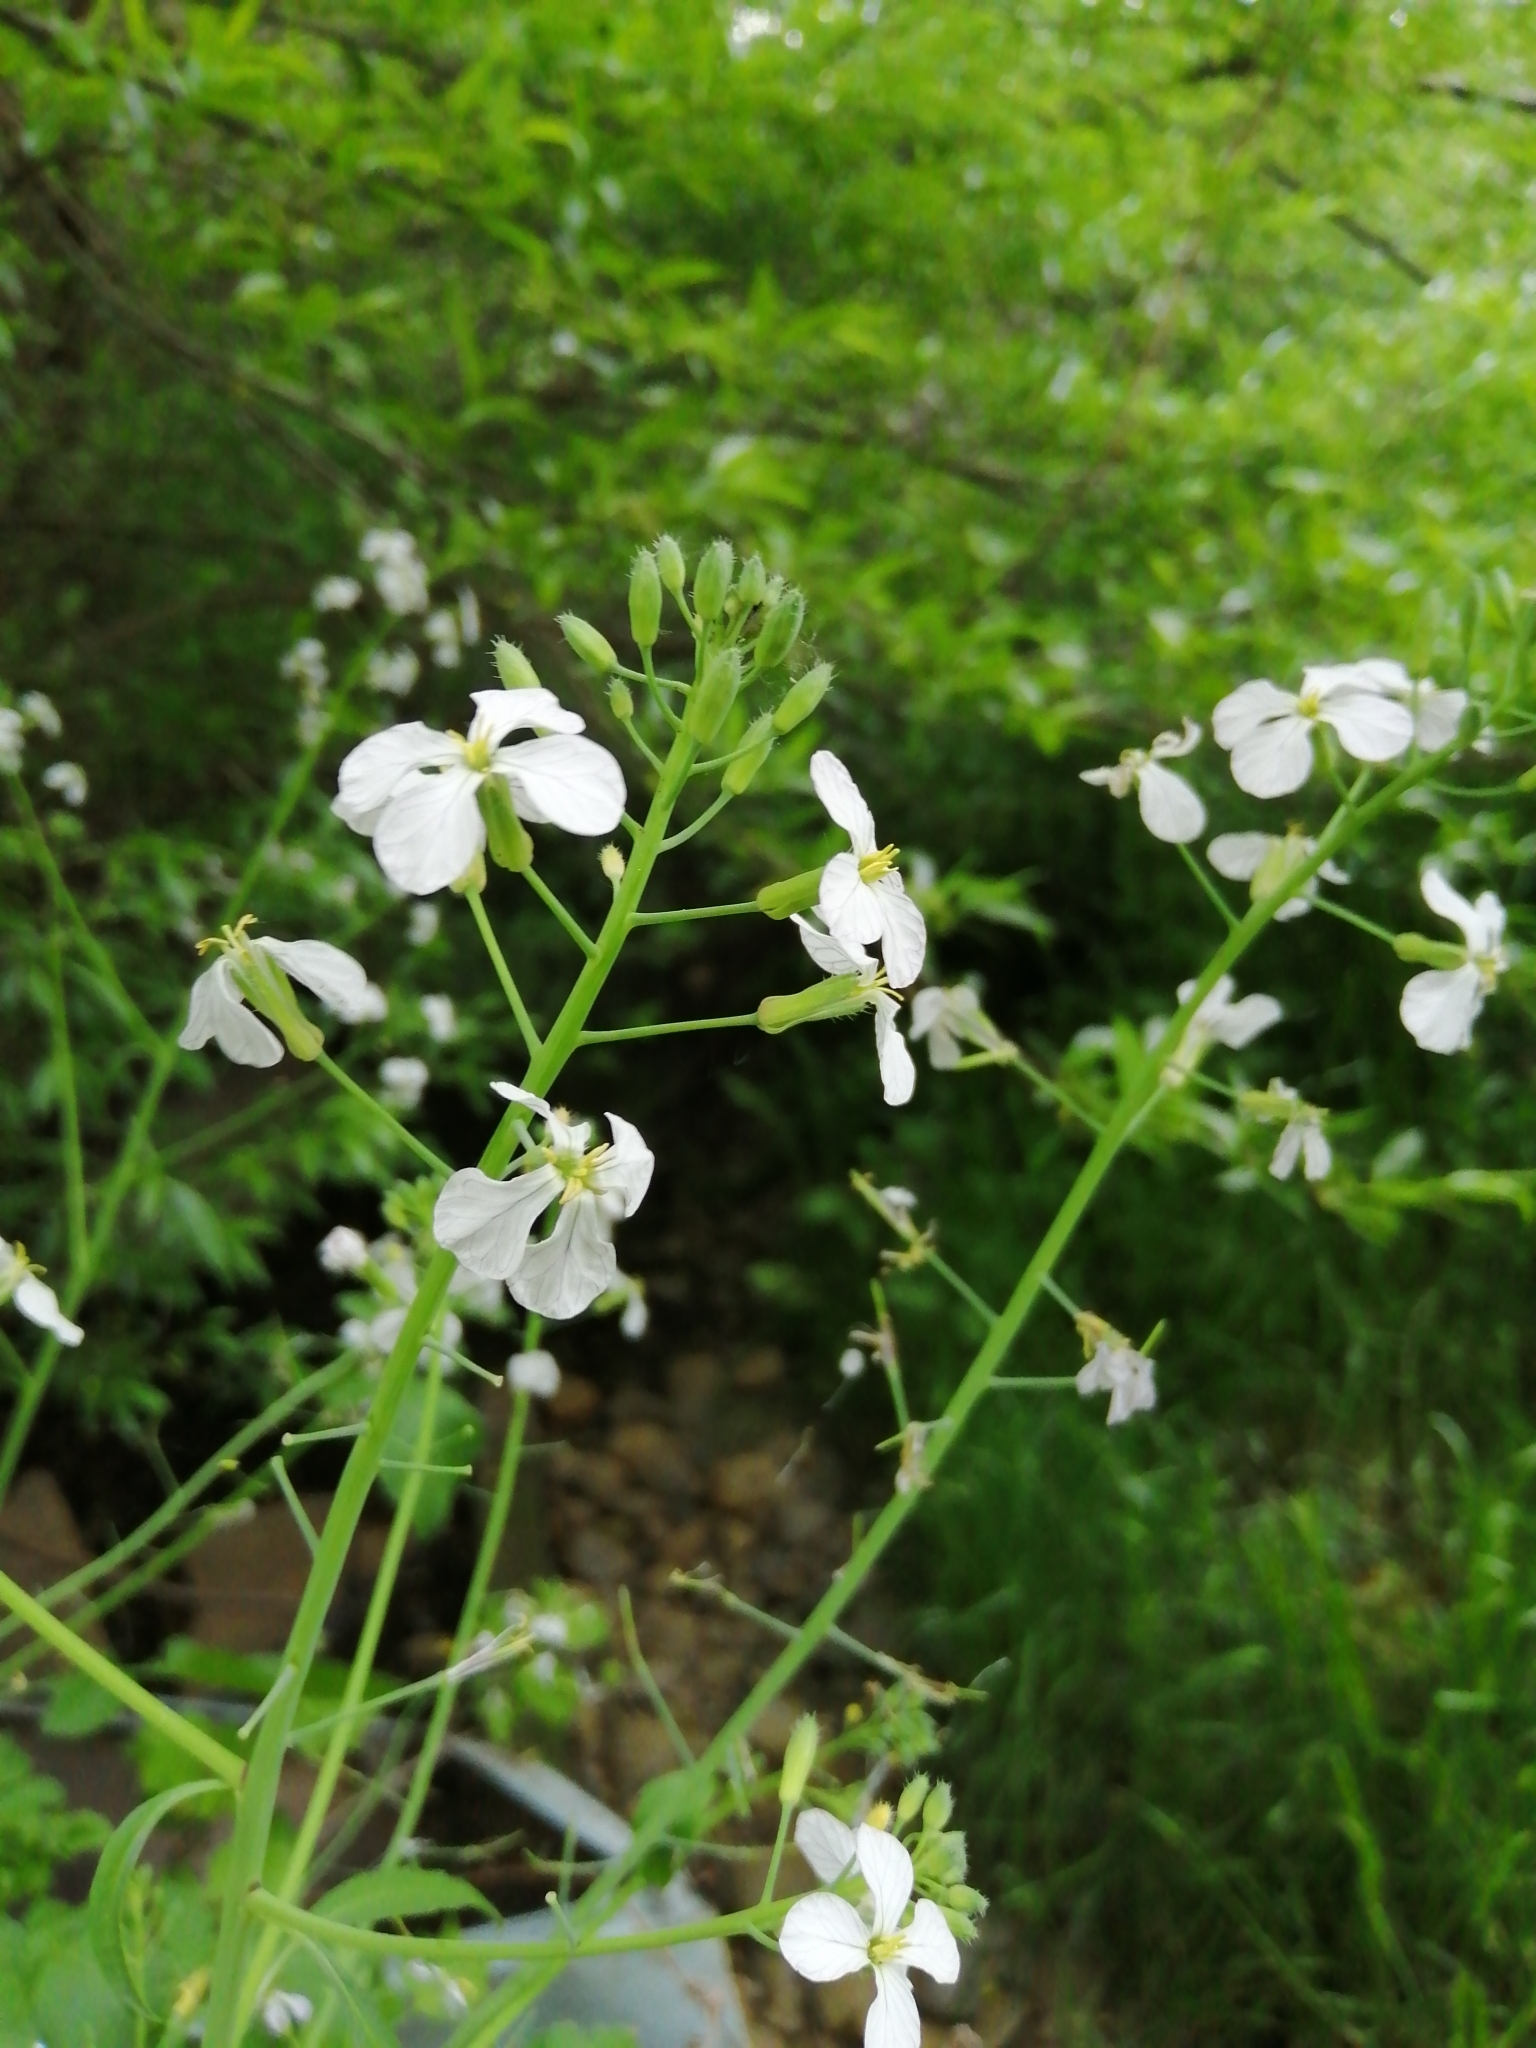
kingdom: Plantae
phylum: Tracheophyta
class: Magnoliopsida
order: Brassicales
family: Brassicaceae
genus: Raphanus
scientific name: Raphanus sativus
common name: Cultivated radish
